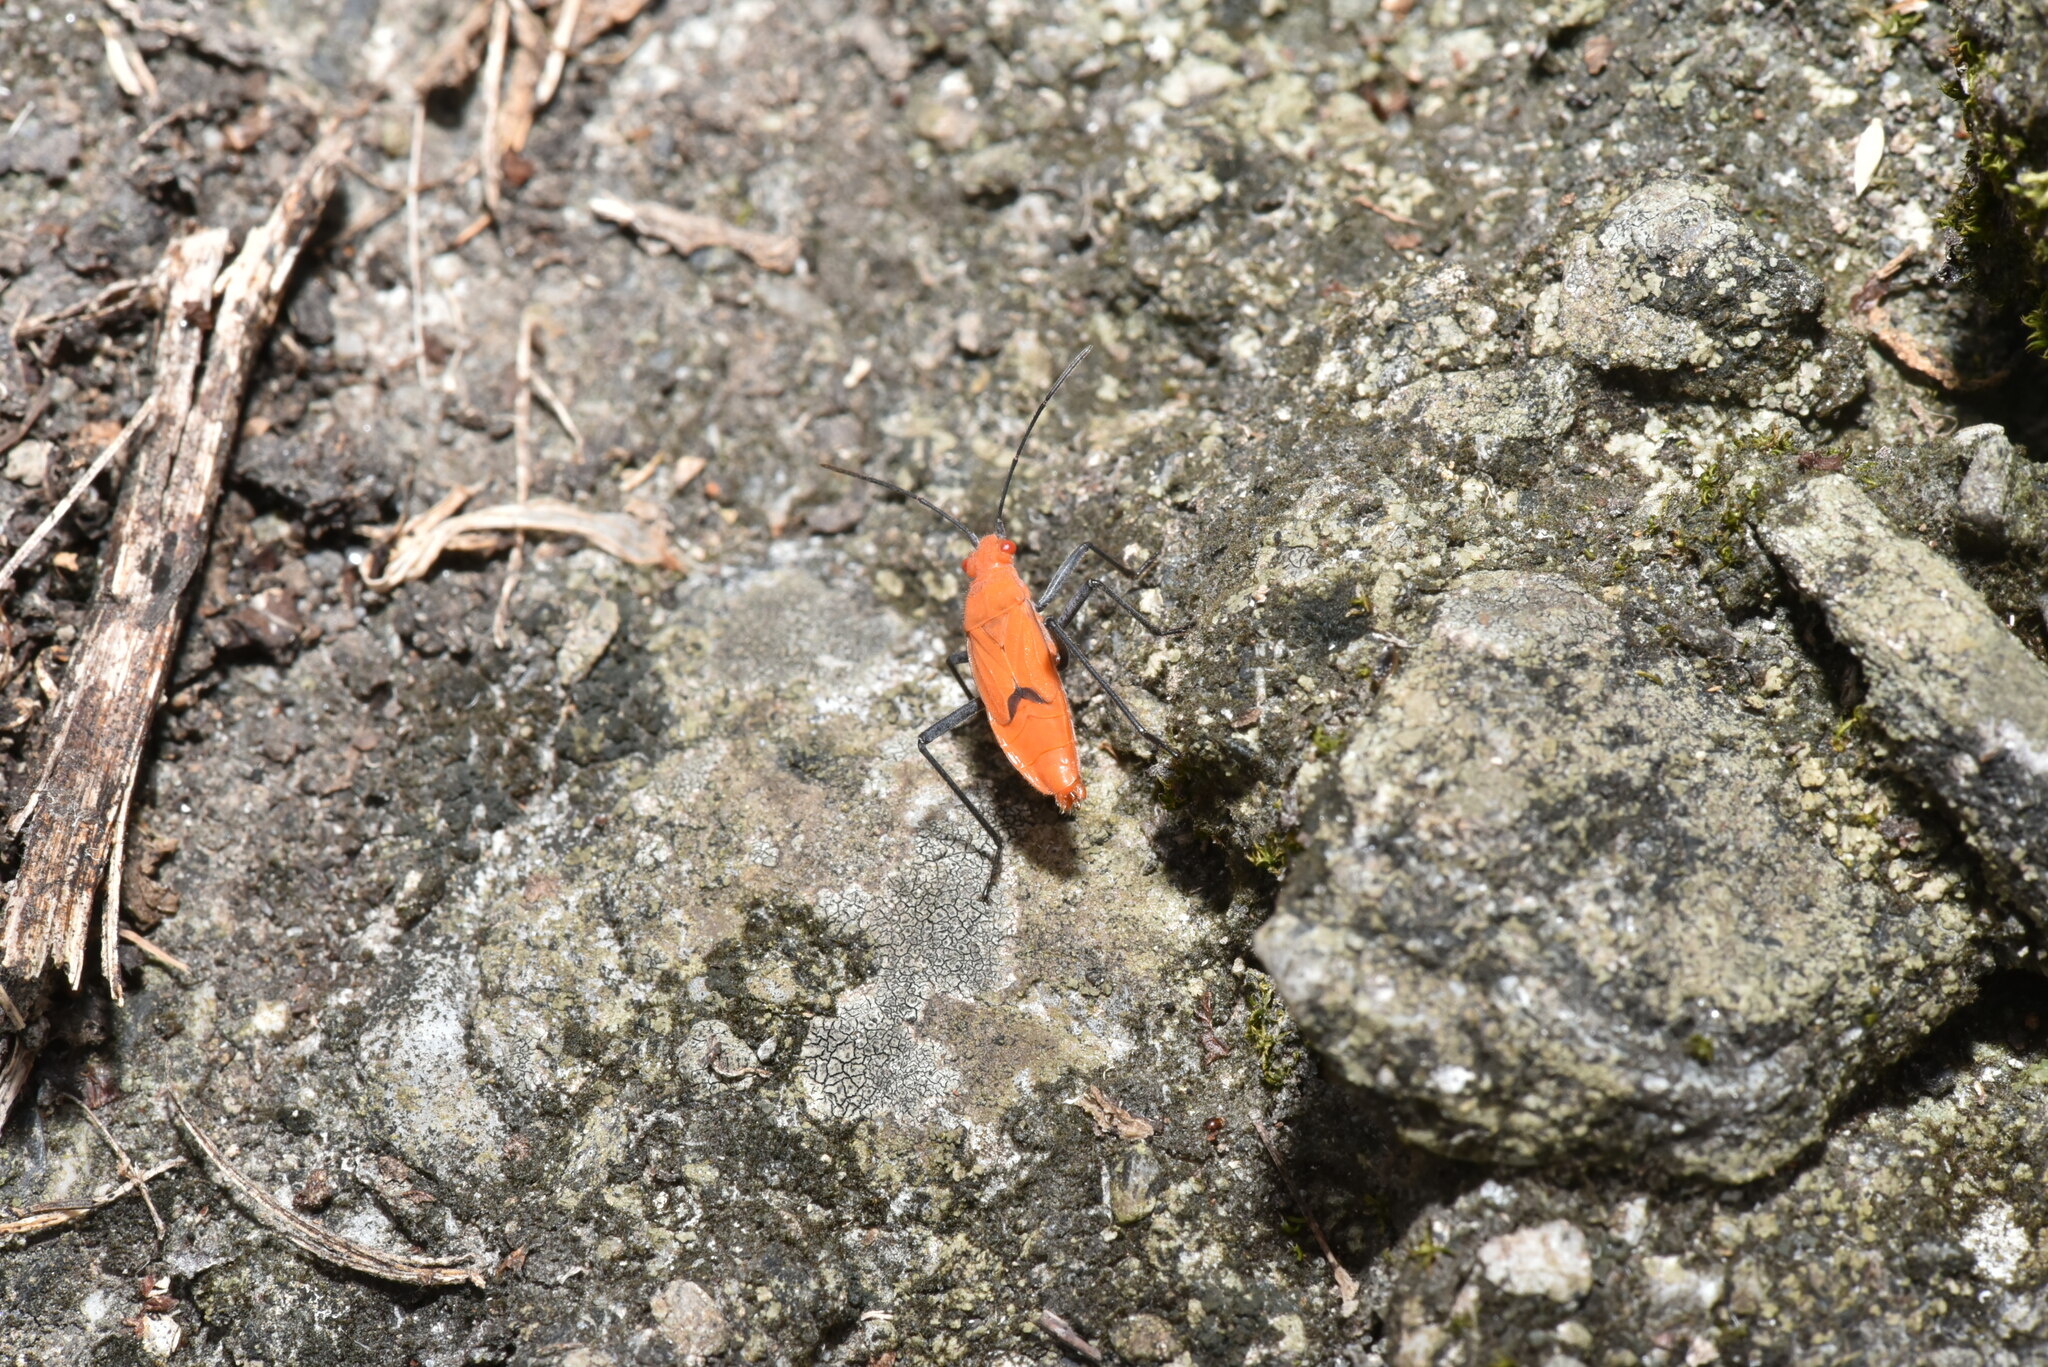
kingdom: Animalia
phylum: Arthropoda
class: Insecta
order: Hemiptera
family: Rhopalidae
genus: Leptocoris
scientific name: Leptocoris augur
